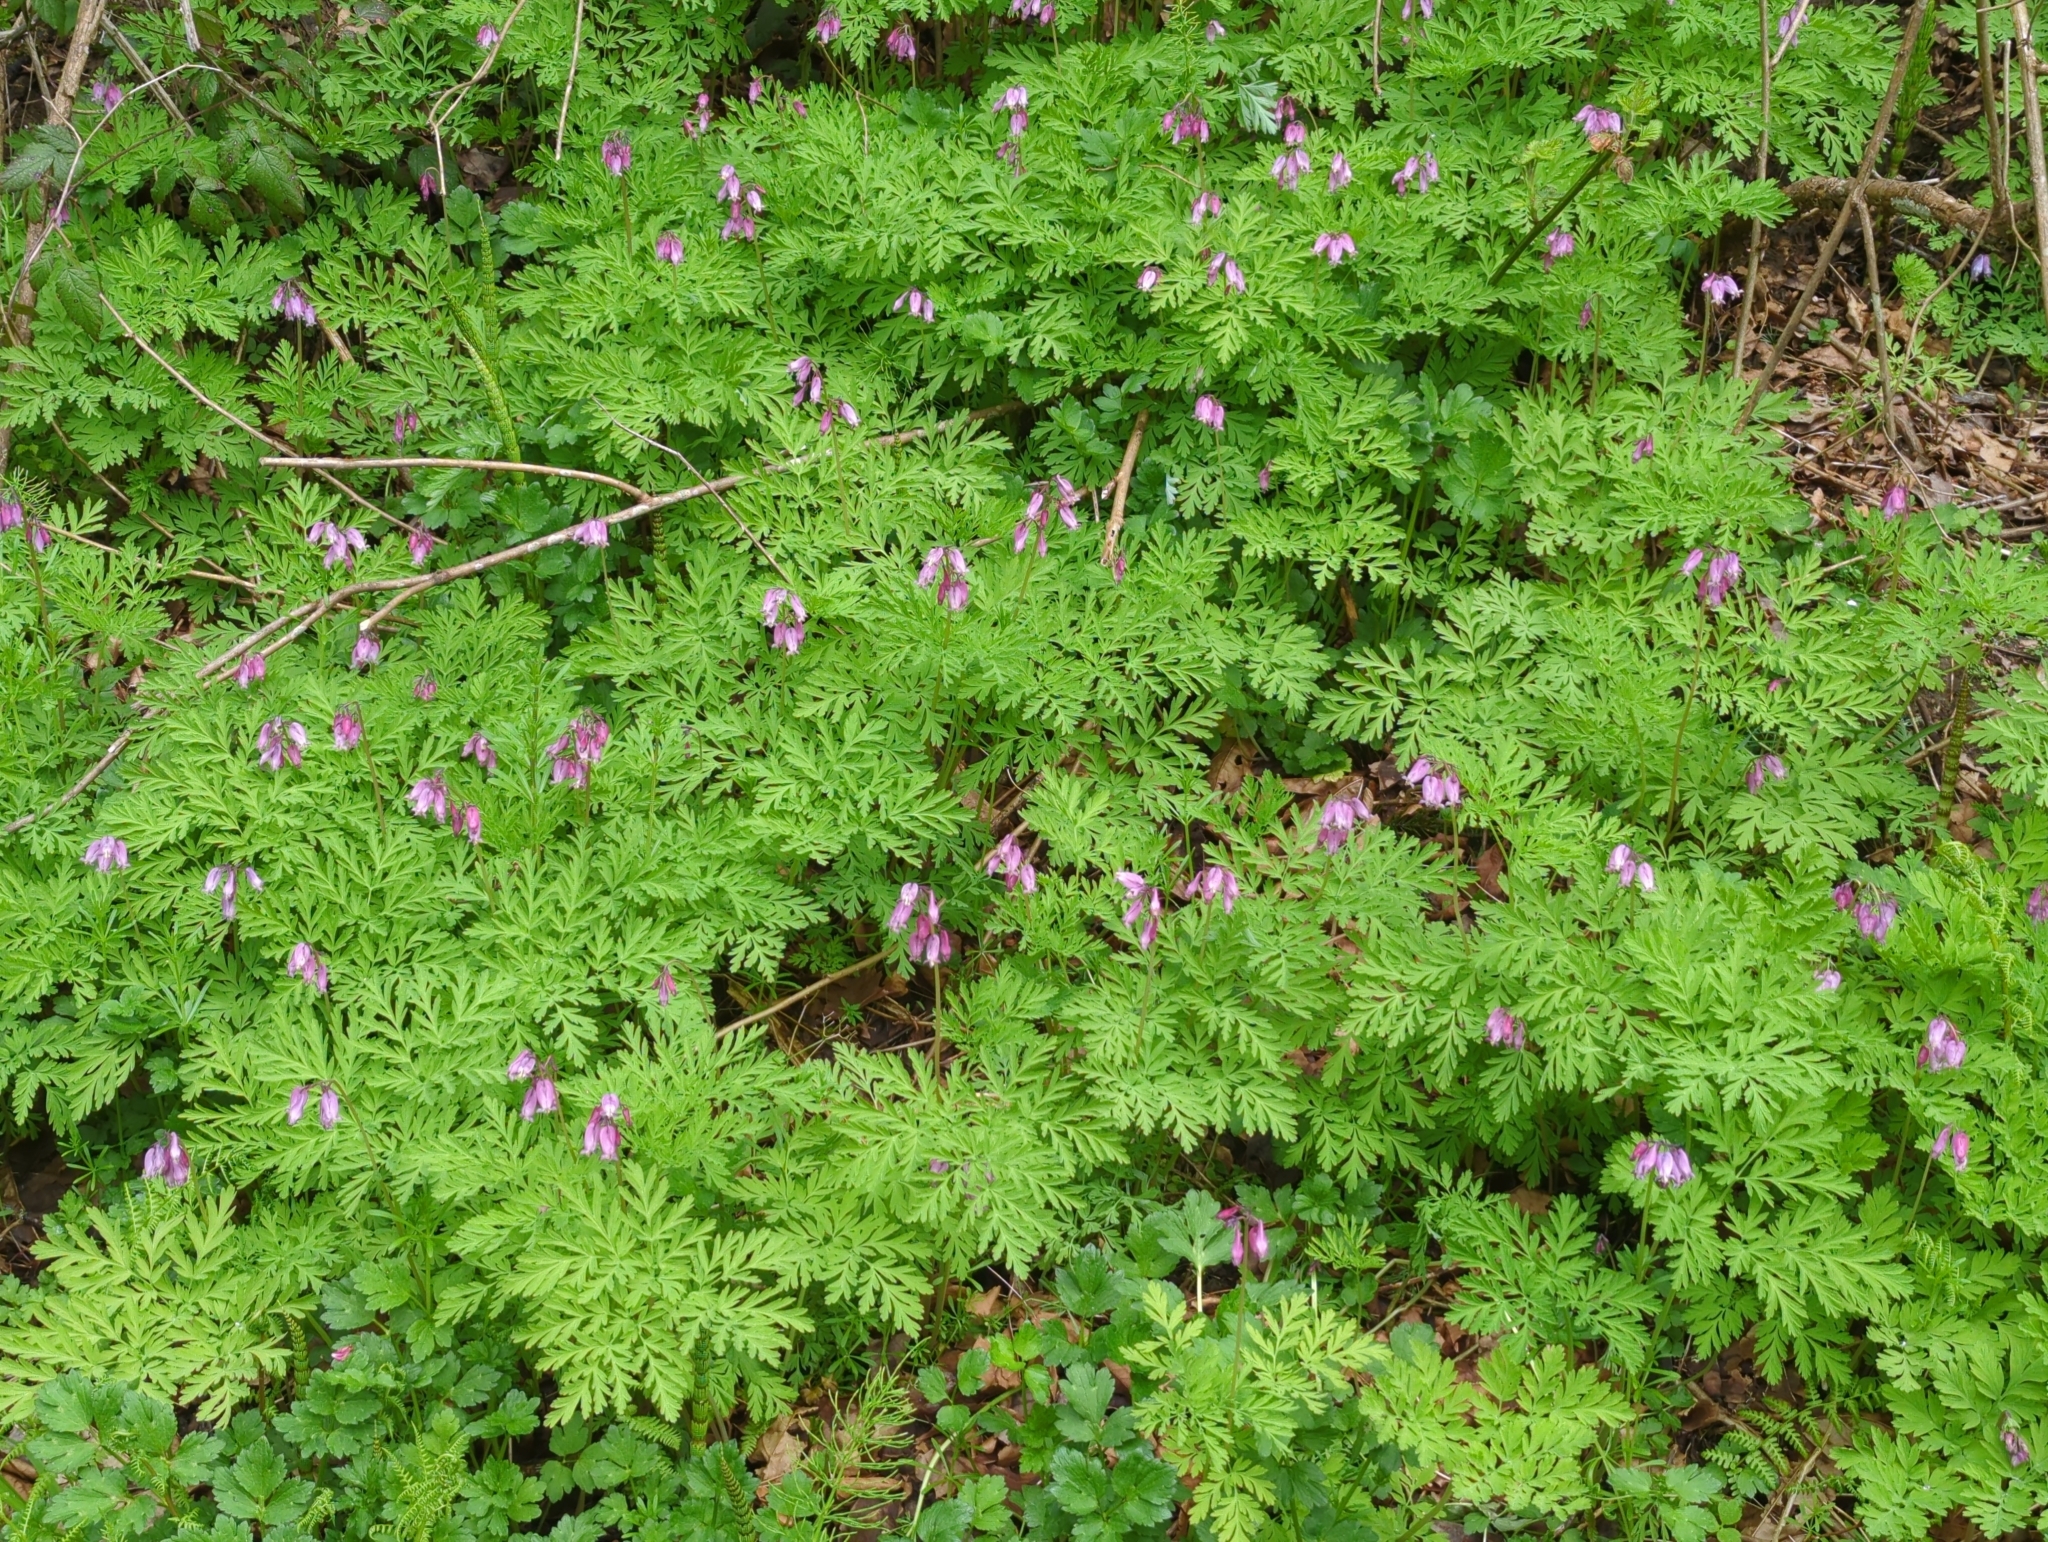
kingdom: Plantae
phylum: Tracheophyta
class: Magnoliopsida
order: Ranunculales
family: Papaveraceae
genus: Dicentra
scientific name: Dicentra formosa
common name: Bleeding-heart
